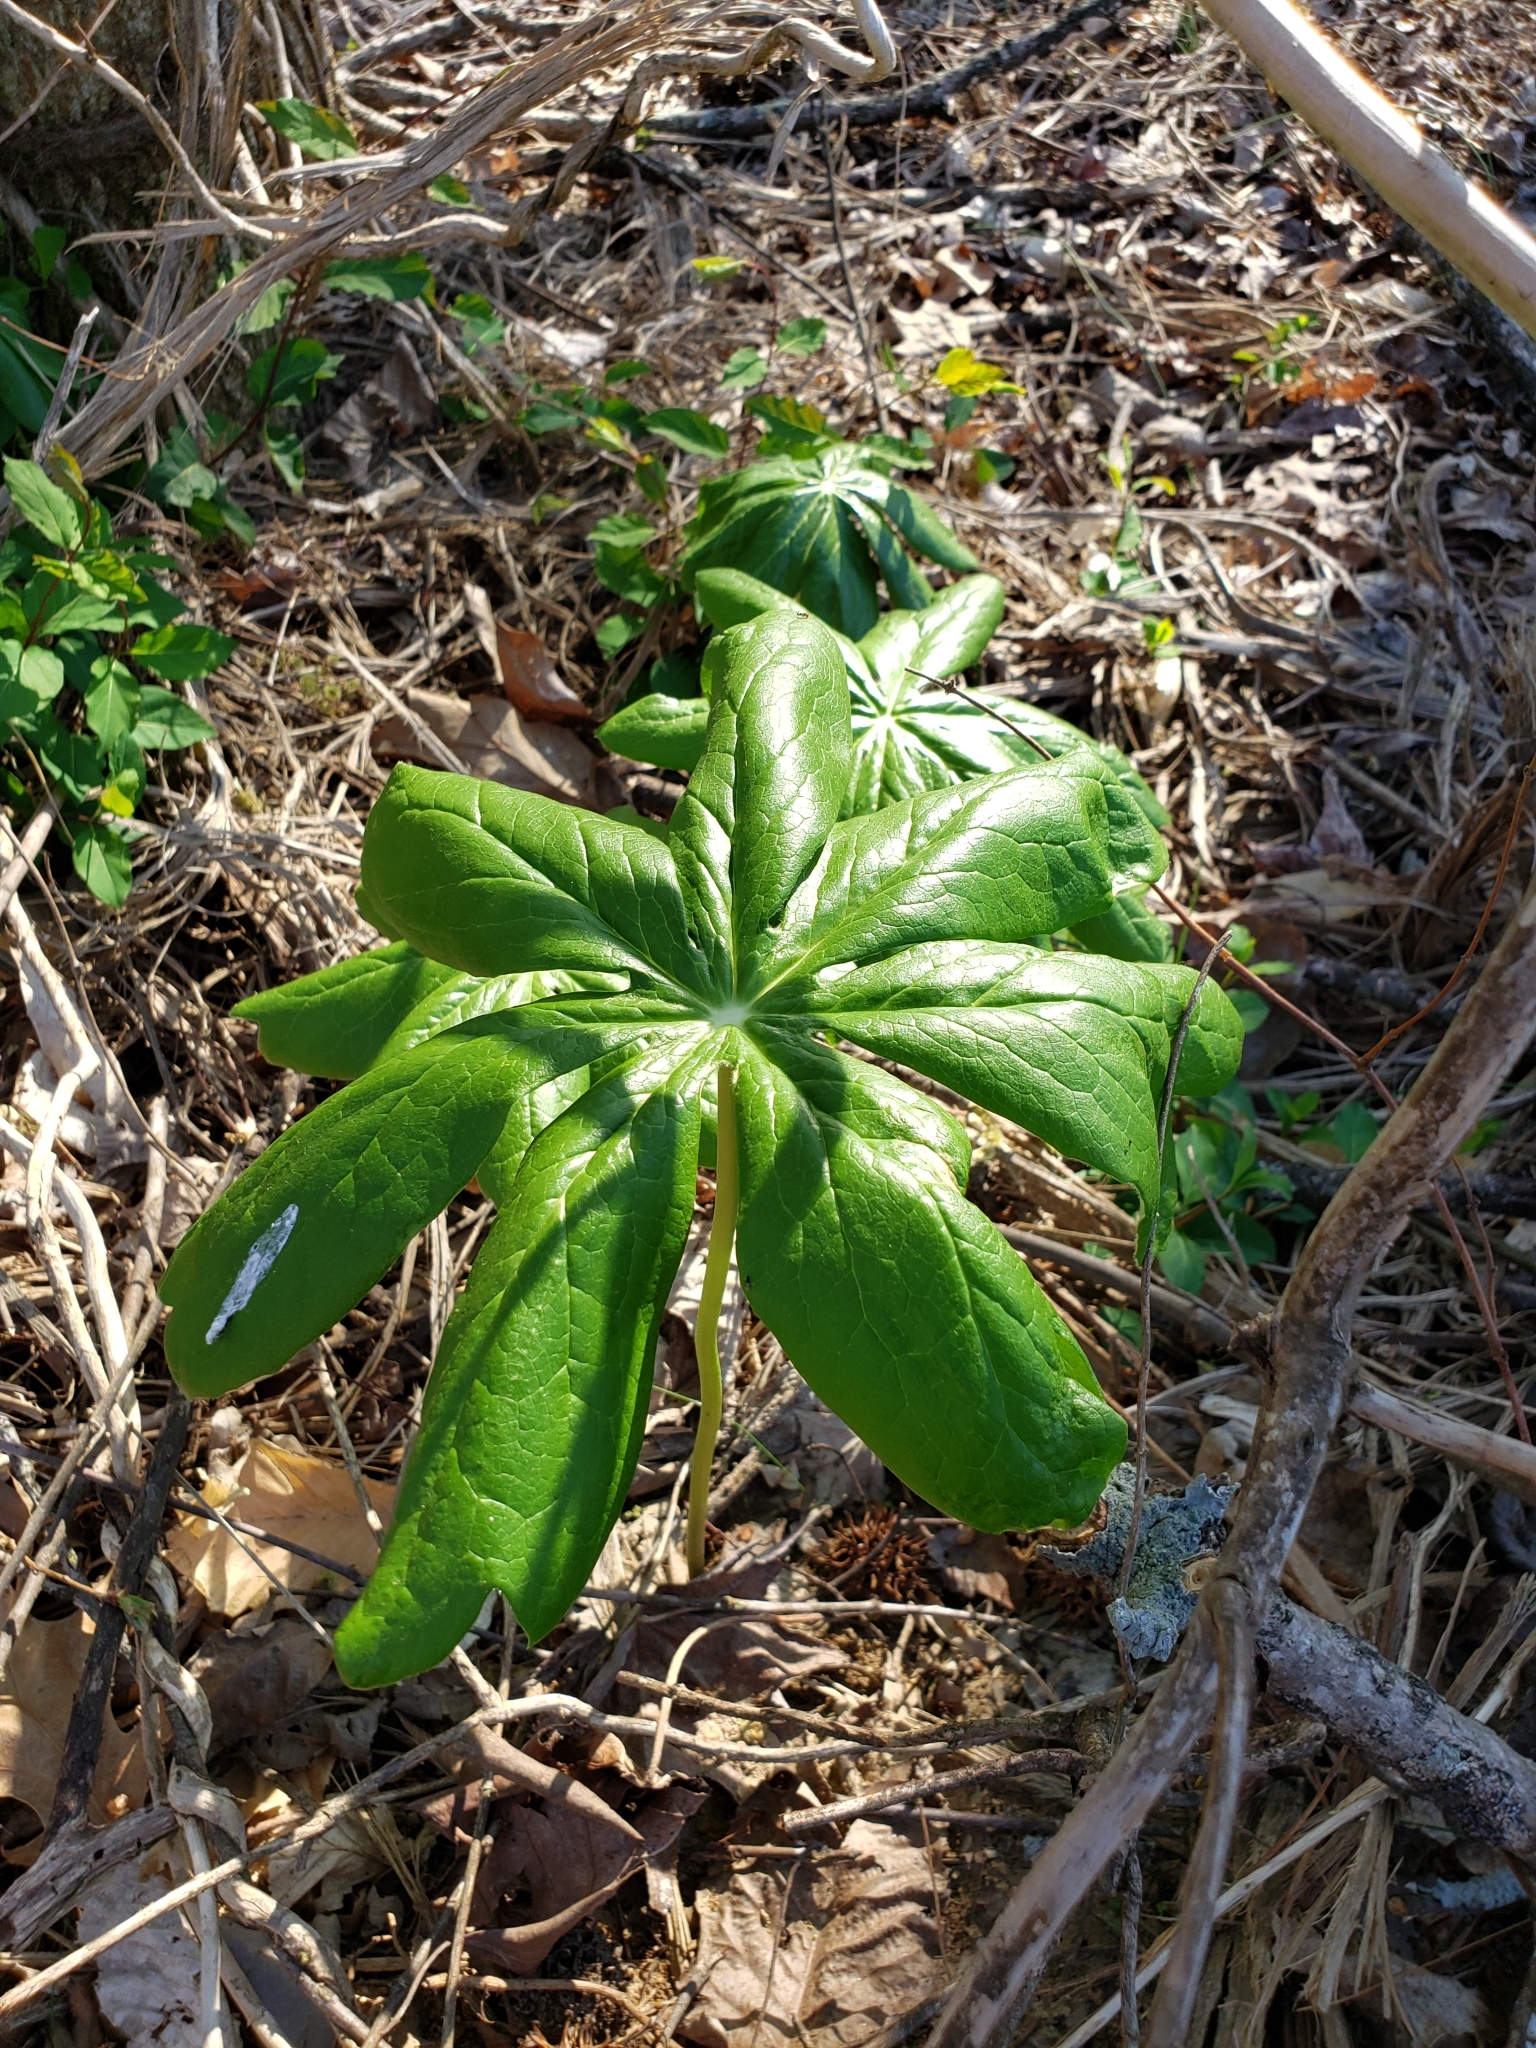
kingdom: Plantae
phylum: Tracheophyta
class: Magnoliopsida
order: Ranunculales
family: Berberidaceae
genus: Podophyllum
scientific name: Podophyllum peltatum
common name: Wild mandrake
